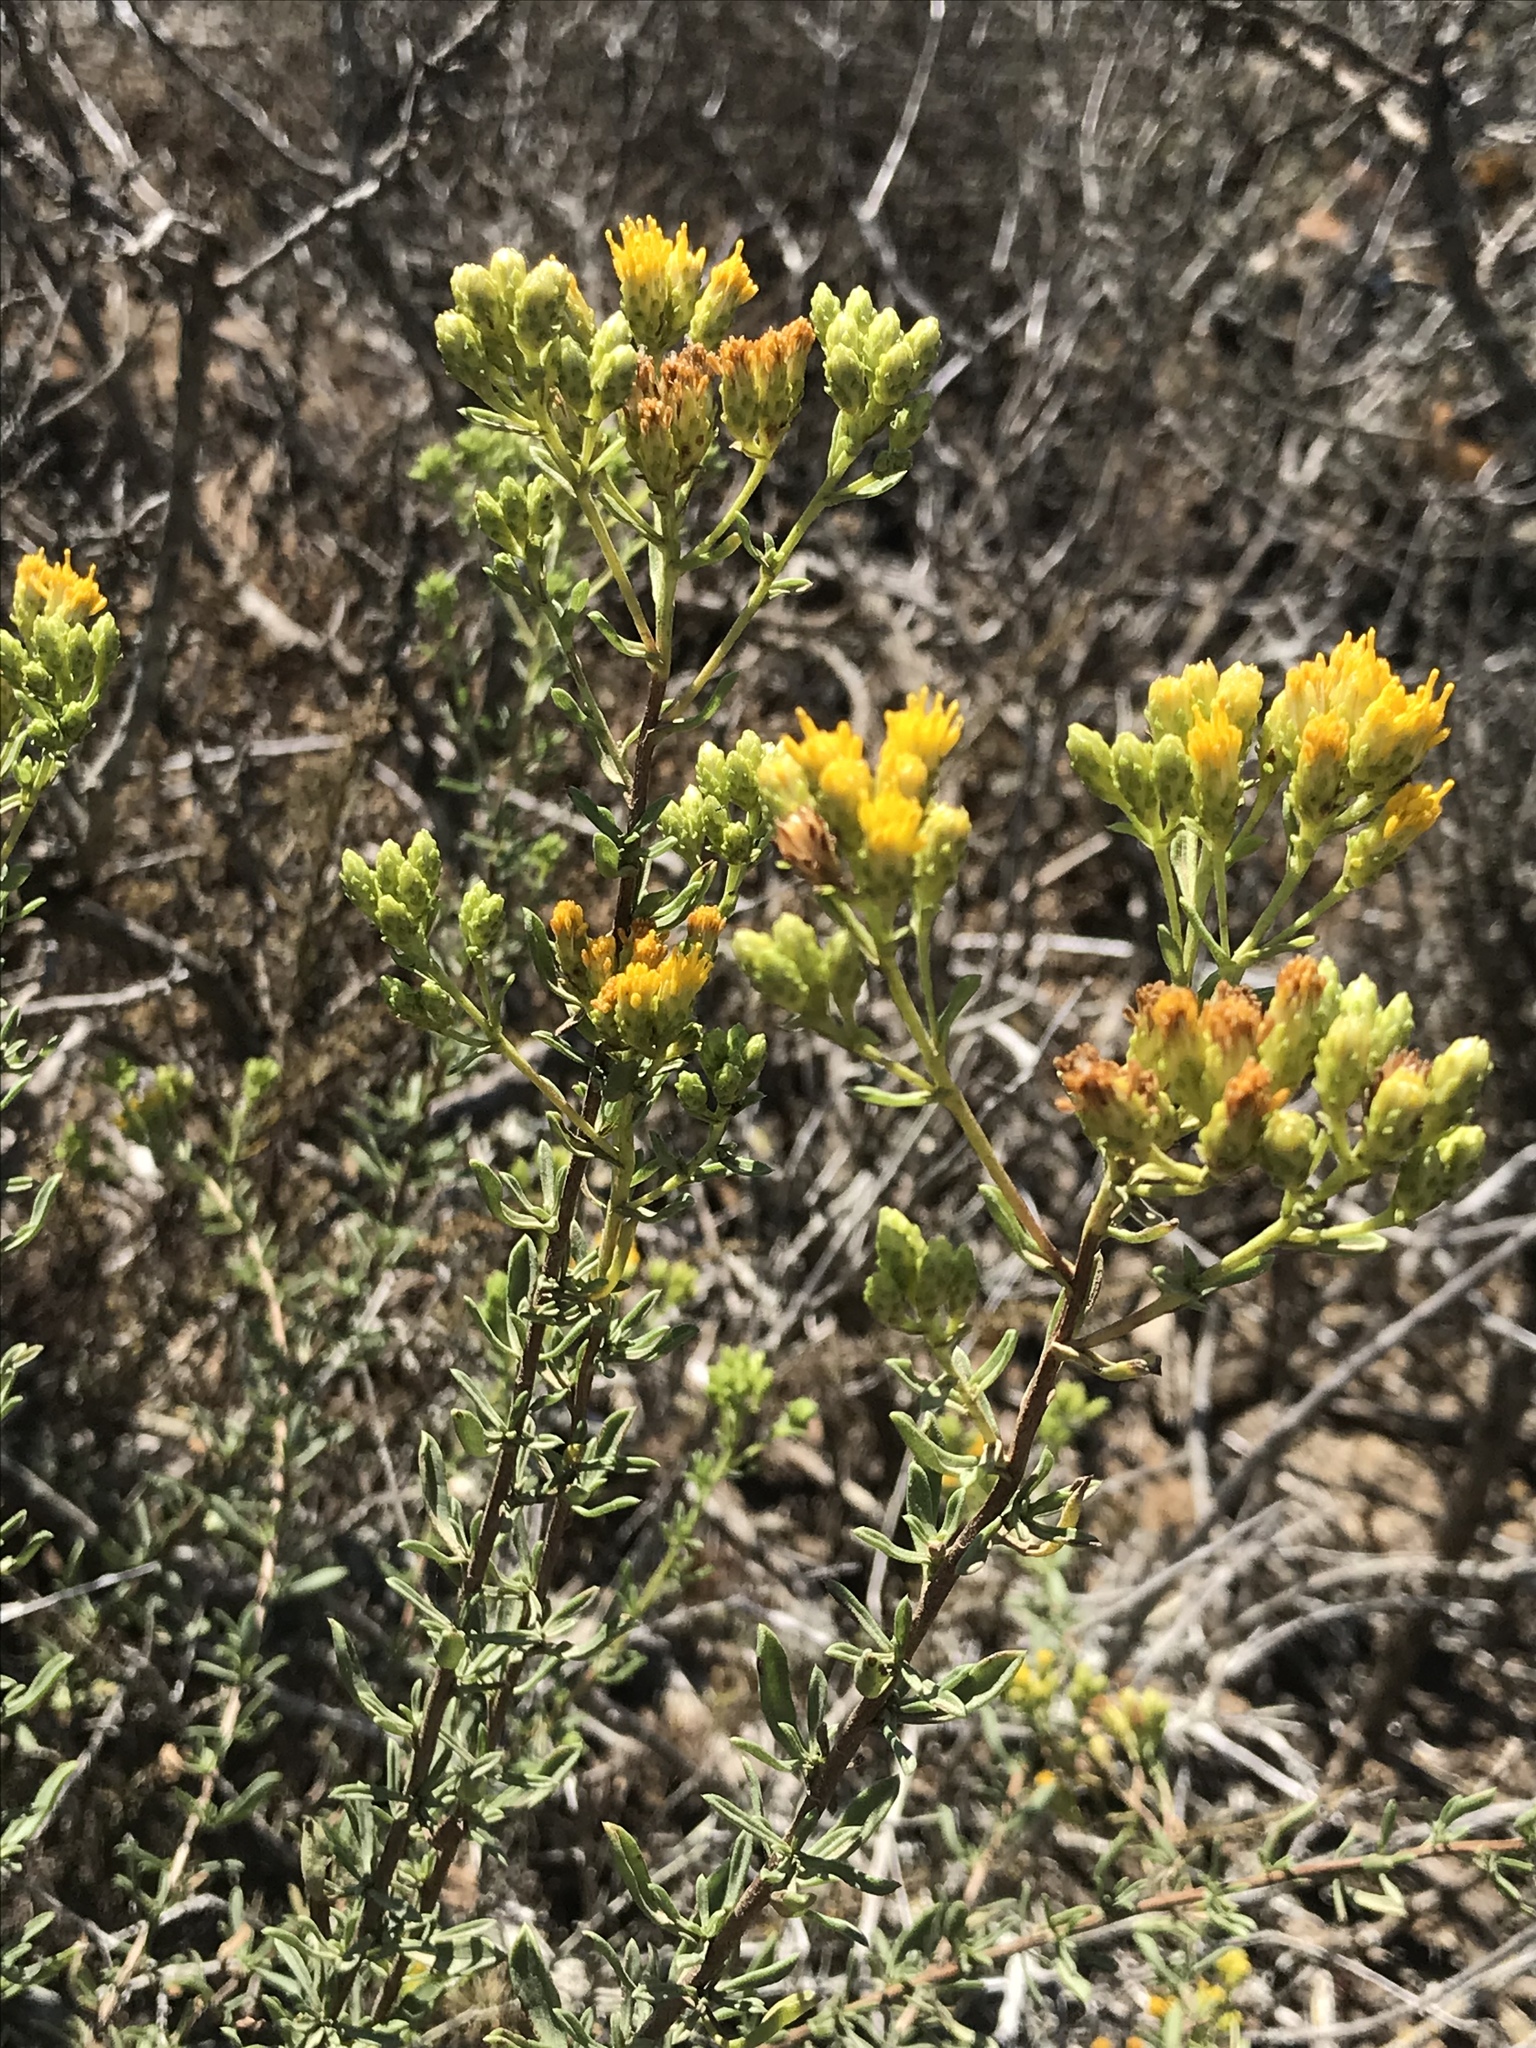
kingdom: Plantae
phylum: Tracheophyta
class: Magnoliopsida
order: Asterales
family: Asteraceae
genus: Isocoma
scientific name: Isocoma menziesii
